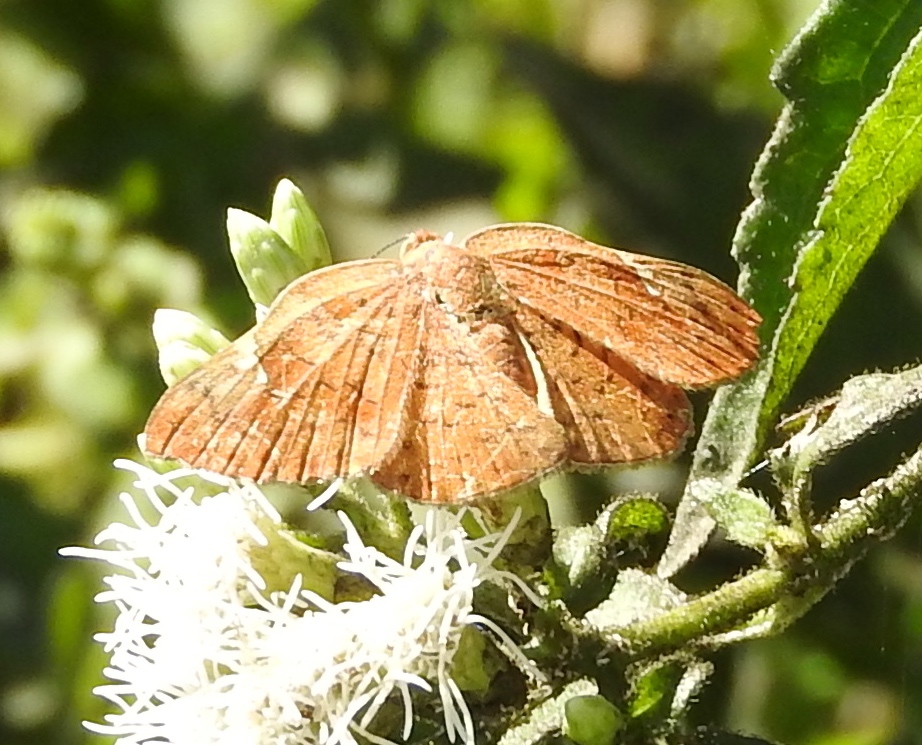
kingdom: Animalia
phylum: Arthropoda
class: Insecta
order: Lepidoptera
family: Riodinidae
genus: Curvie
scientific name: Curvie emesia
